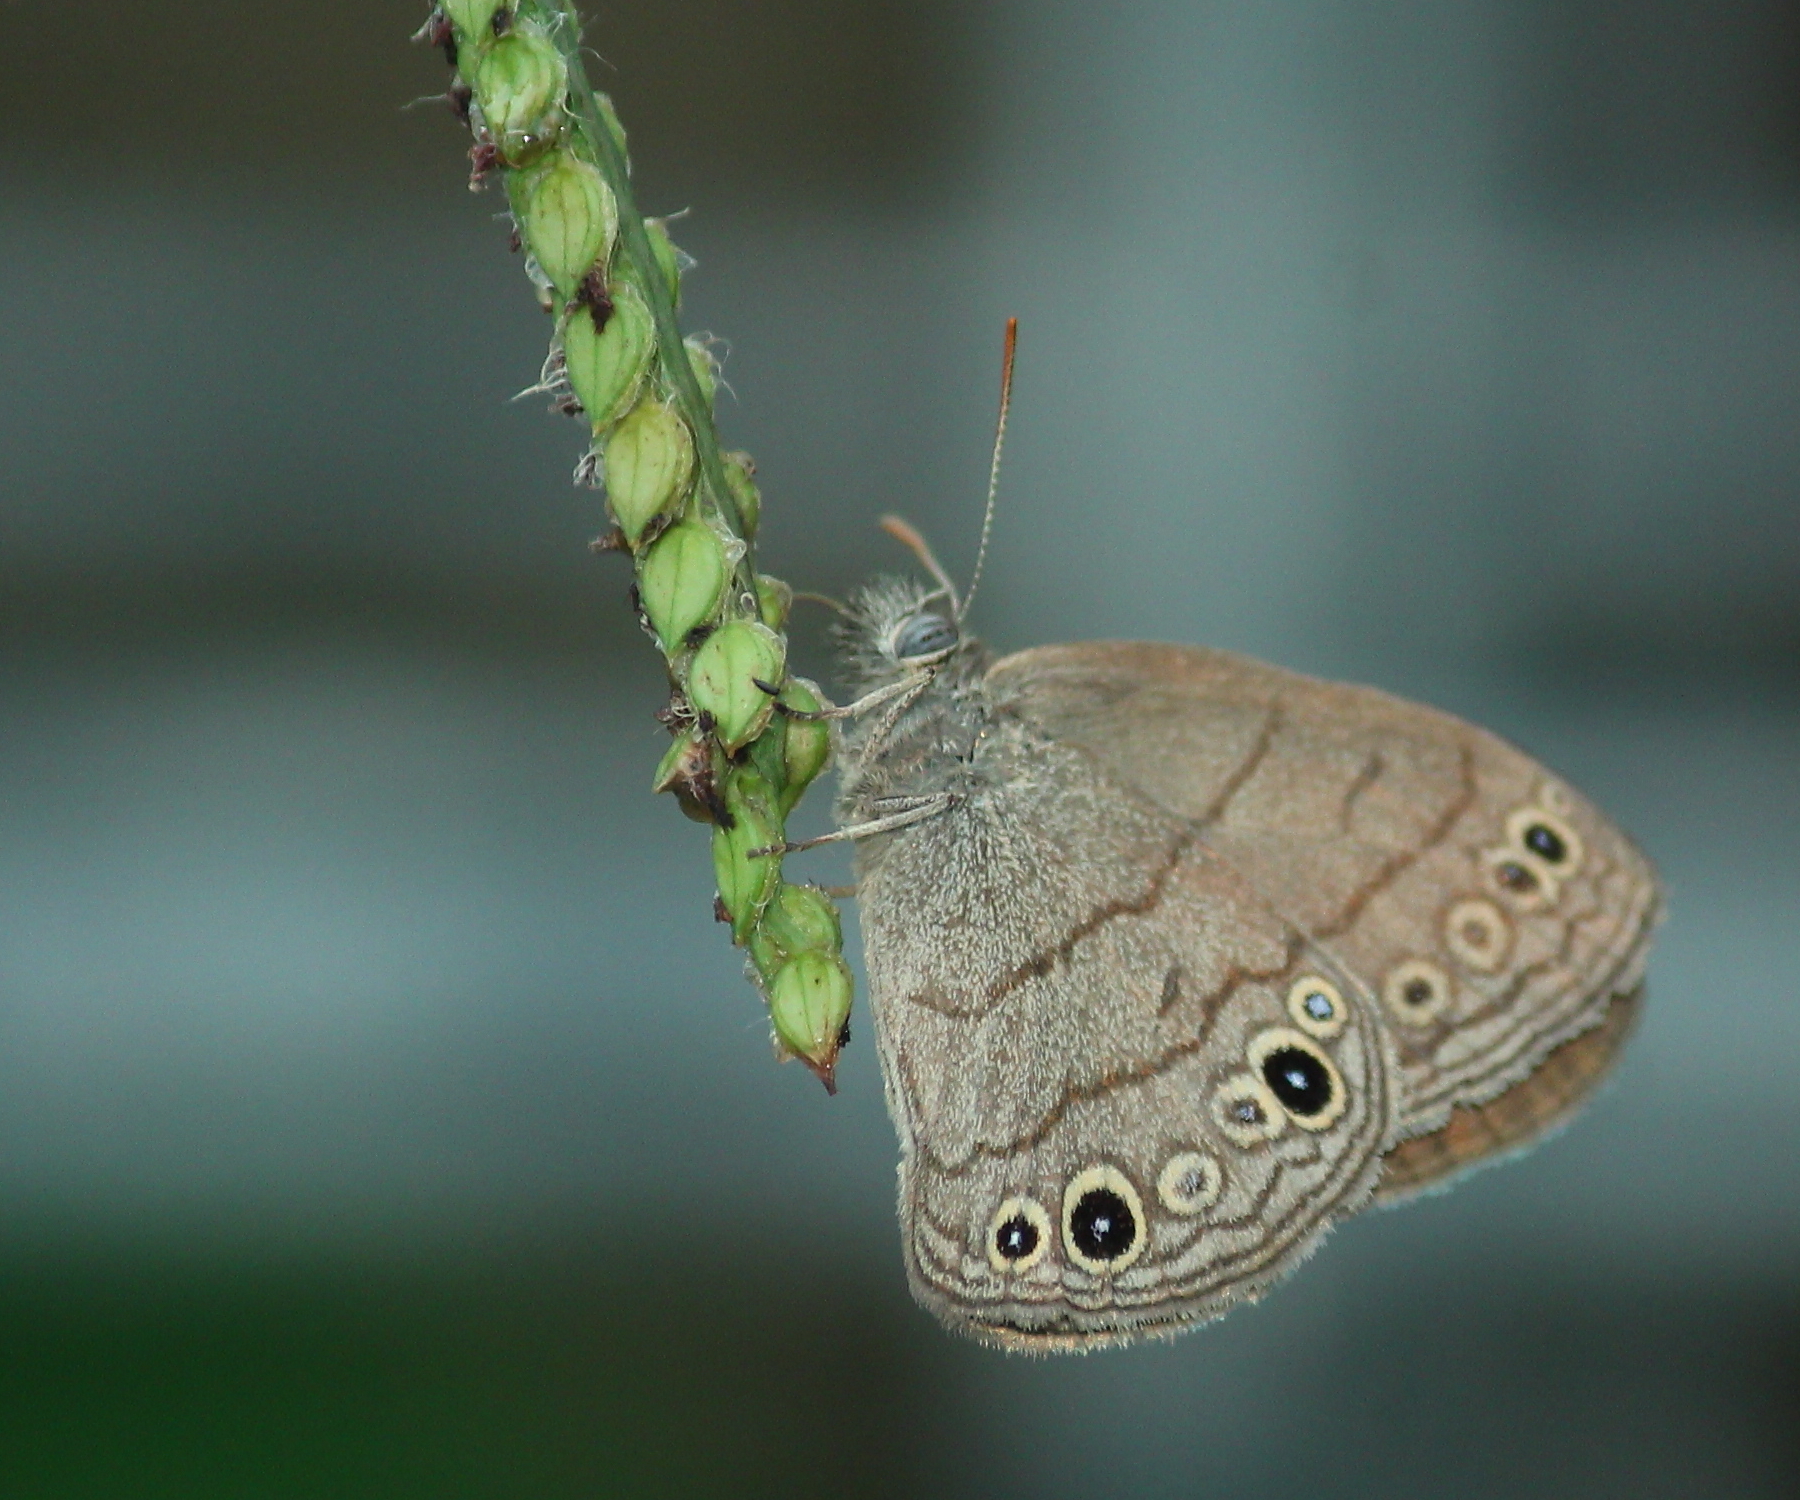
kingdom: Animalia
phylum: Arthropoda
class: Insecta
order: Lepidoptera
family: Nymphalidae
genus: Hermeuptychia
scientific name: Hermeuptychia hermes
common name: Hermes satyr
